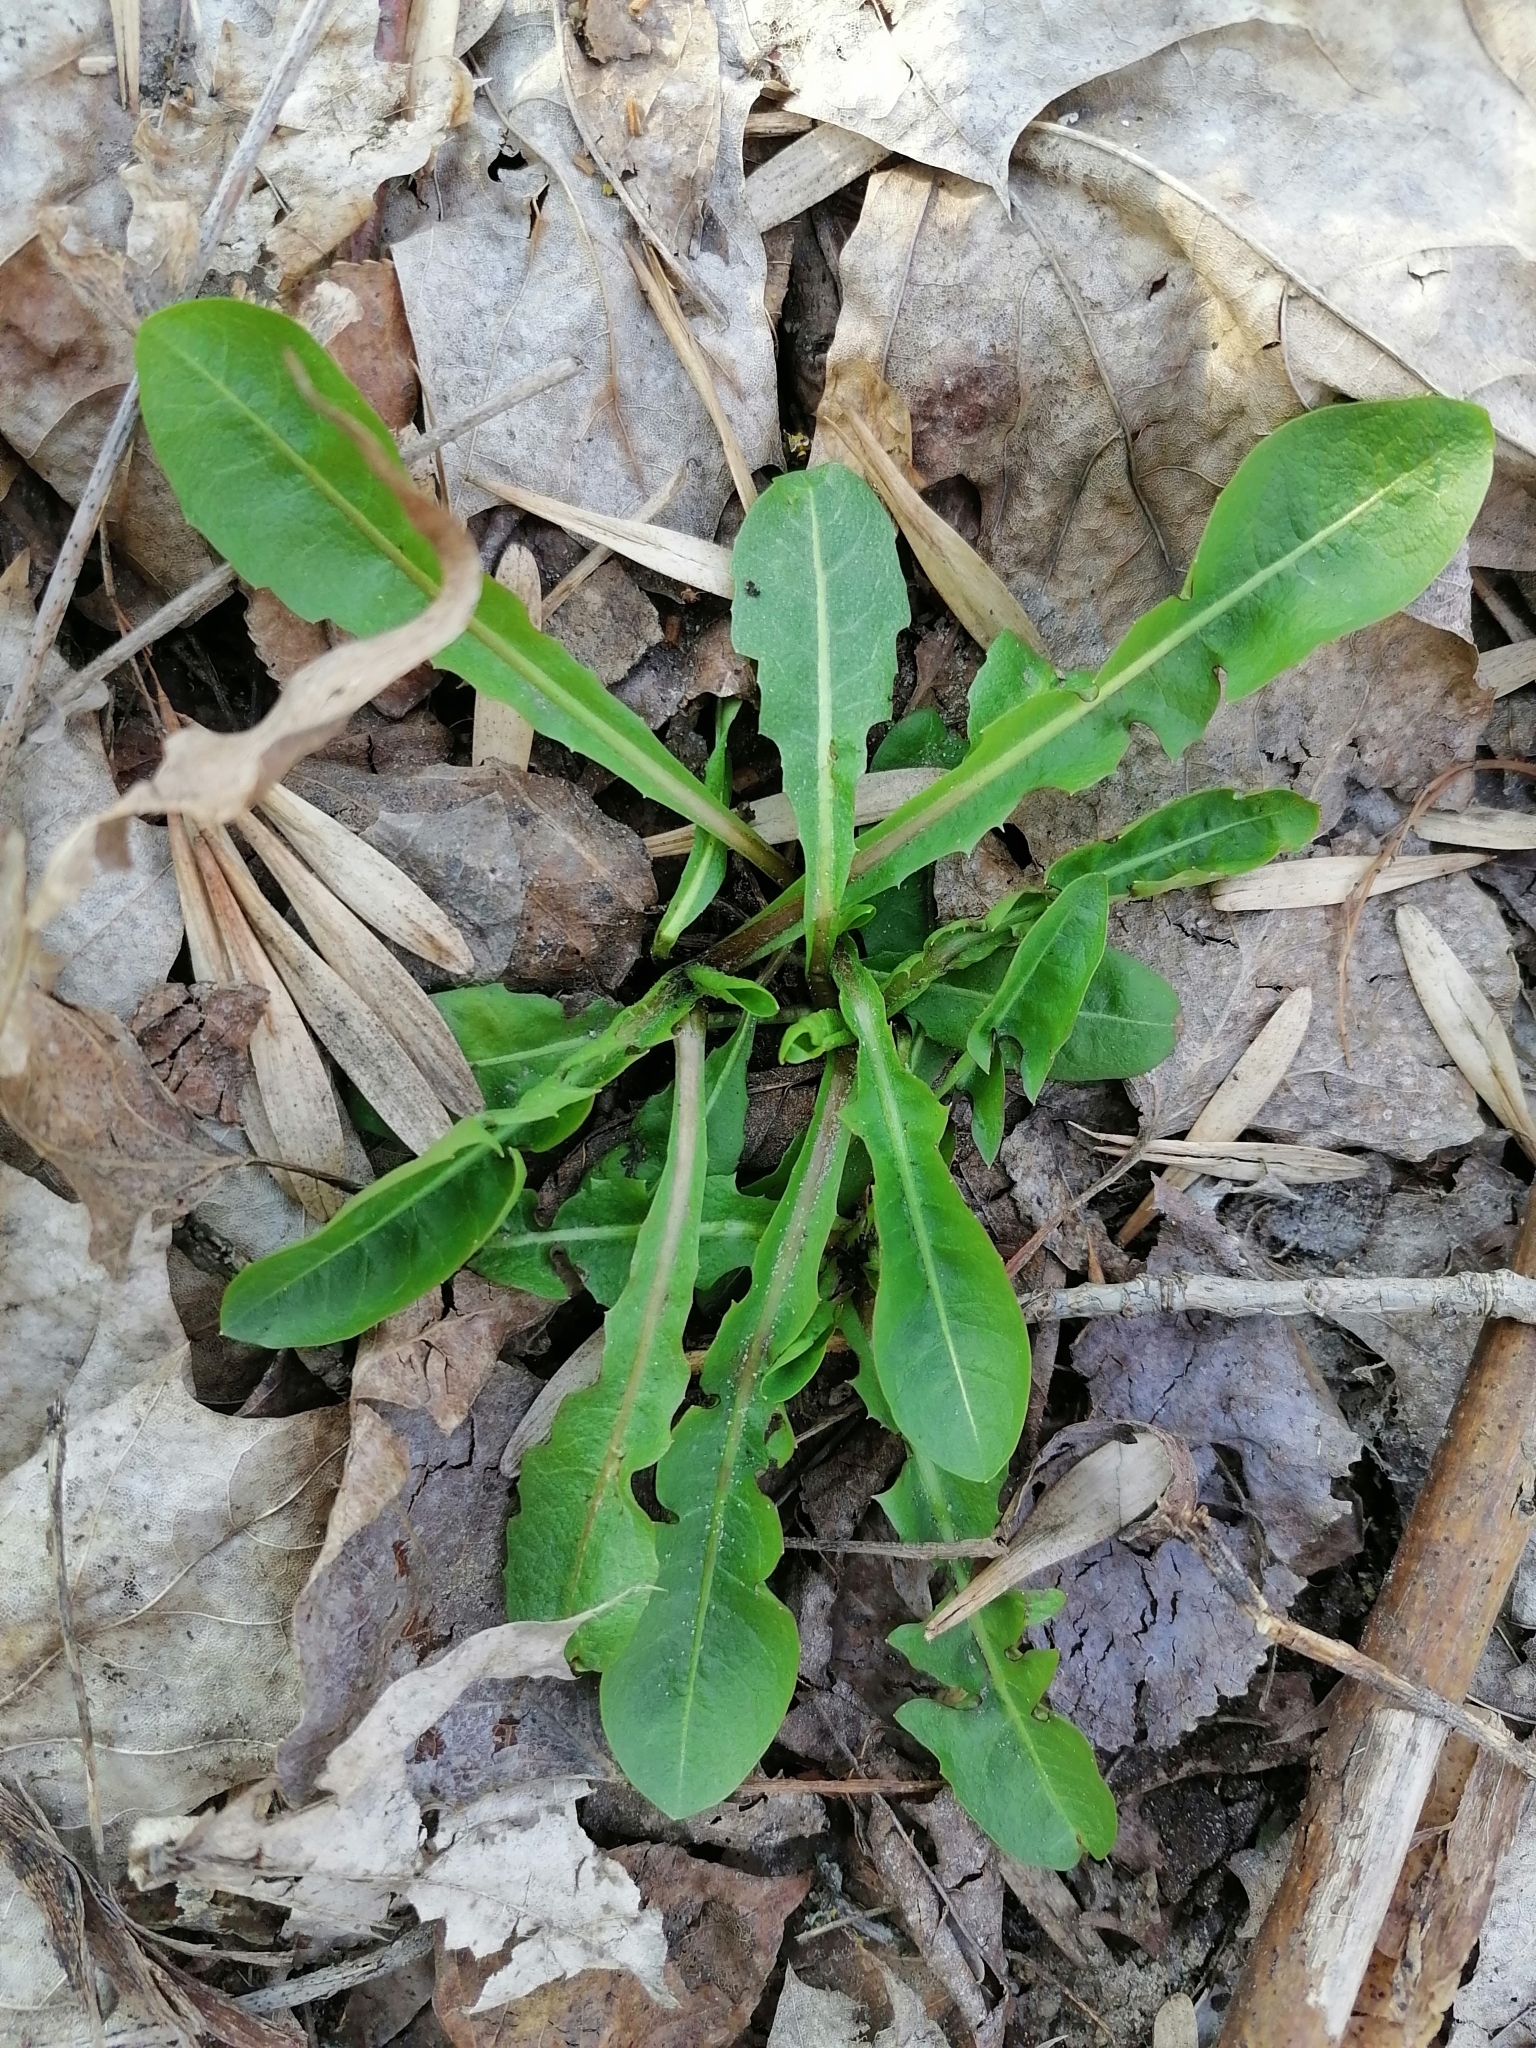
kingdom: Plantae
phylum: Tracheophyta
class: Magnoliopsida
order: Asterales
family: Asteraceae
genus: Taraxacum
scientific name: Taraxacum officinale
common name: Common dandelion
